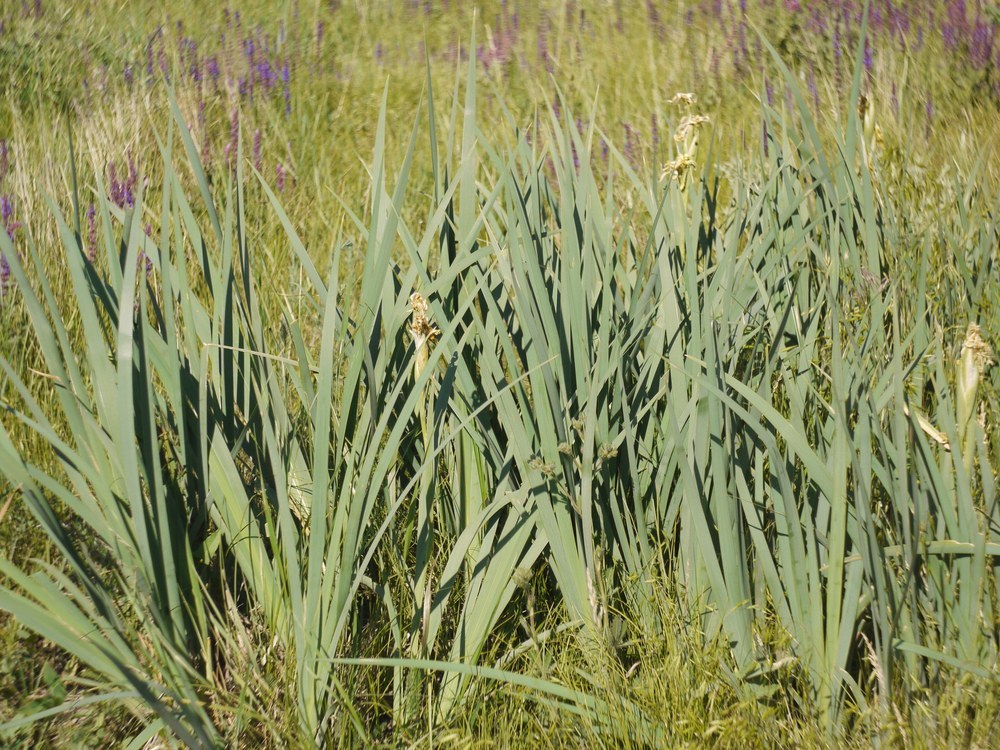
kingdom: Plantae
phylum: Tracheophyta
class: Liliopsida
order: Asparagales
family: Iridaceae
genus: Iris
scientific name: Iris halophila
